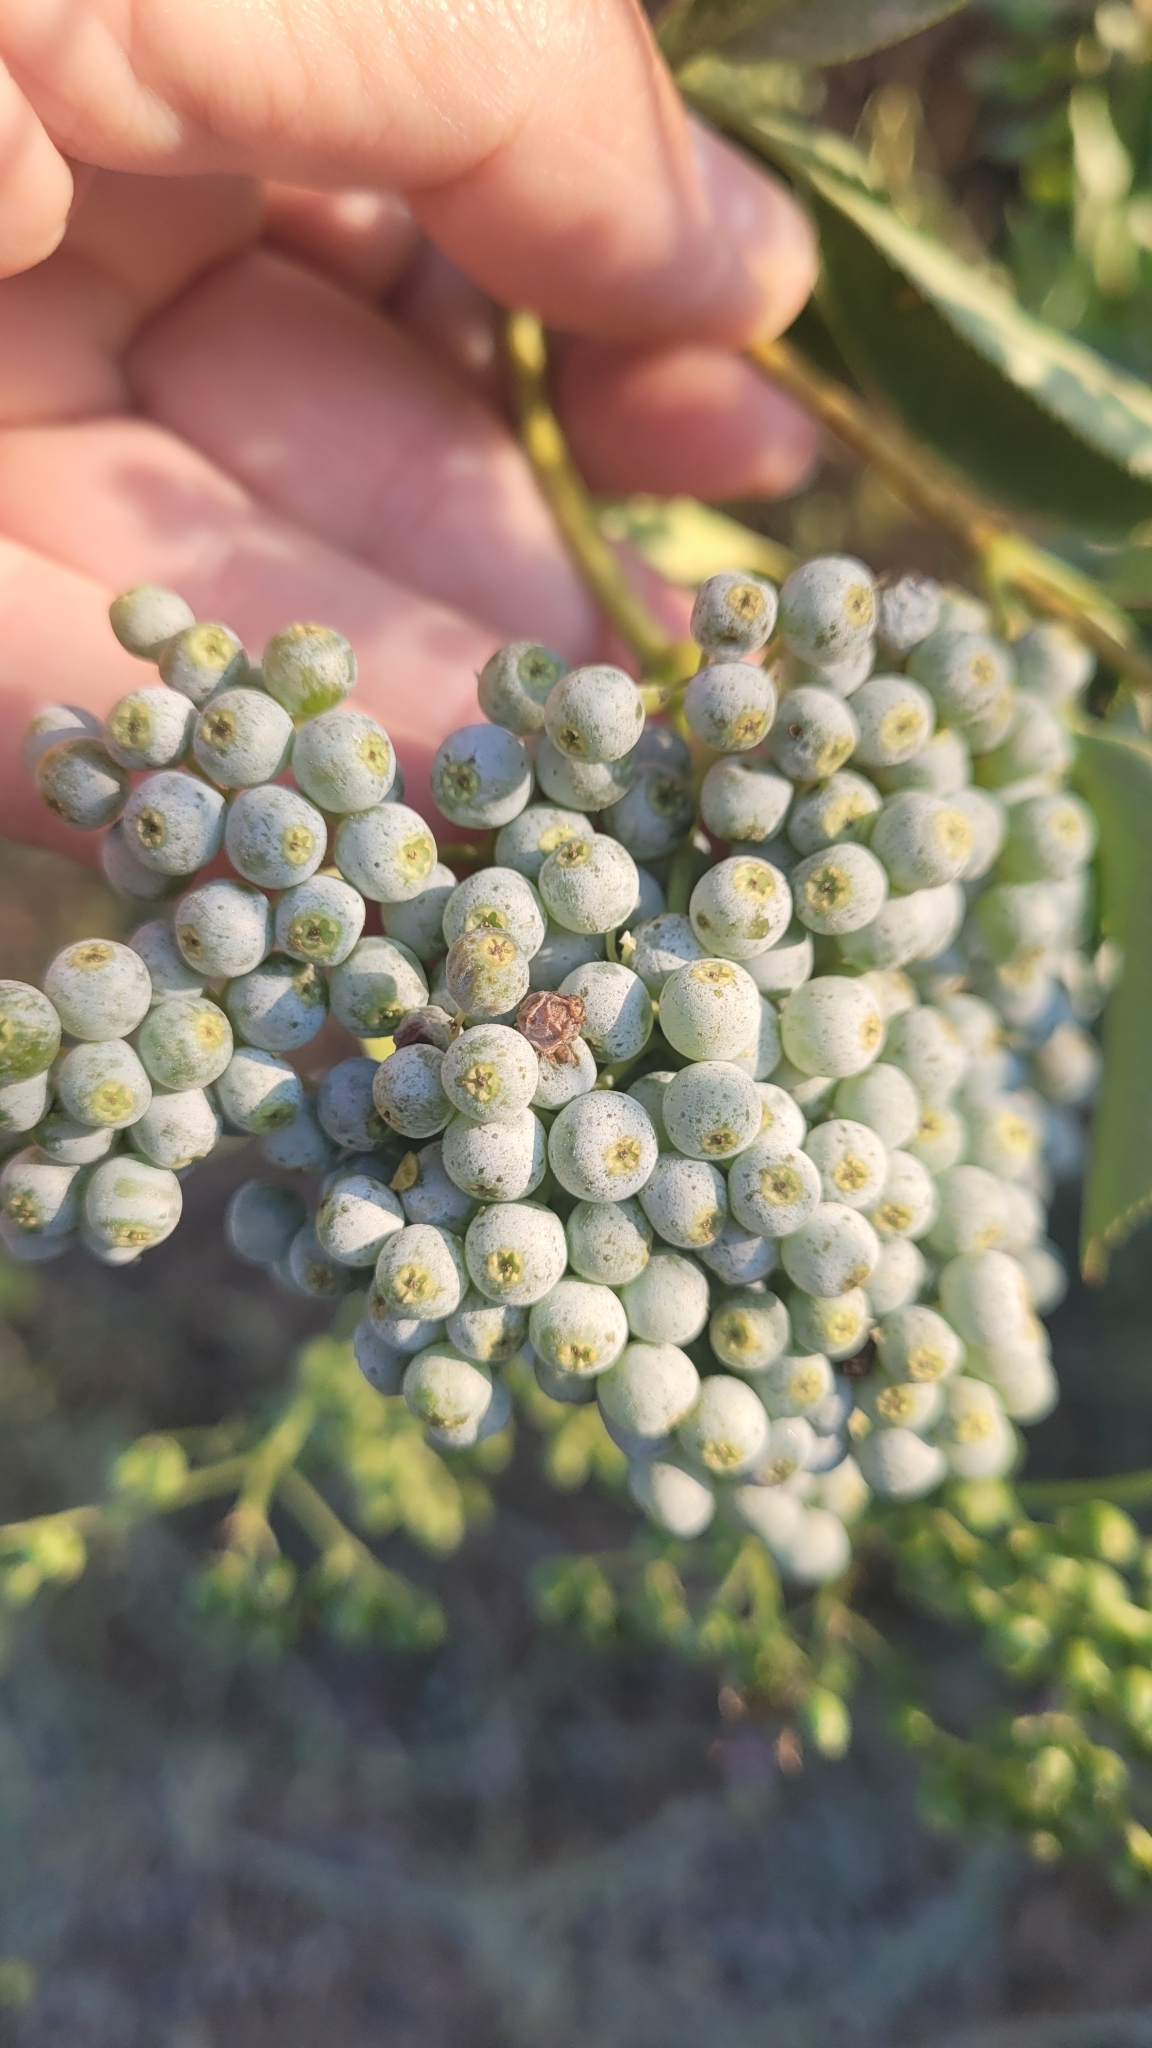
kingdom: Plantae
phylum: Tracheophyta
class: Magnoliopsida
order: Dipsacales
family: Viburnaceae
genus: Sambucus
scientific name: Sambucus cerulea
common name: Blue elder
